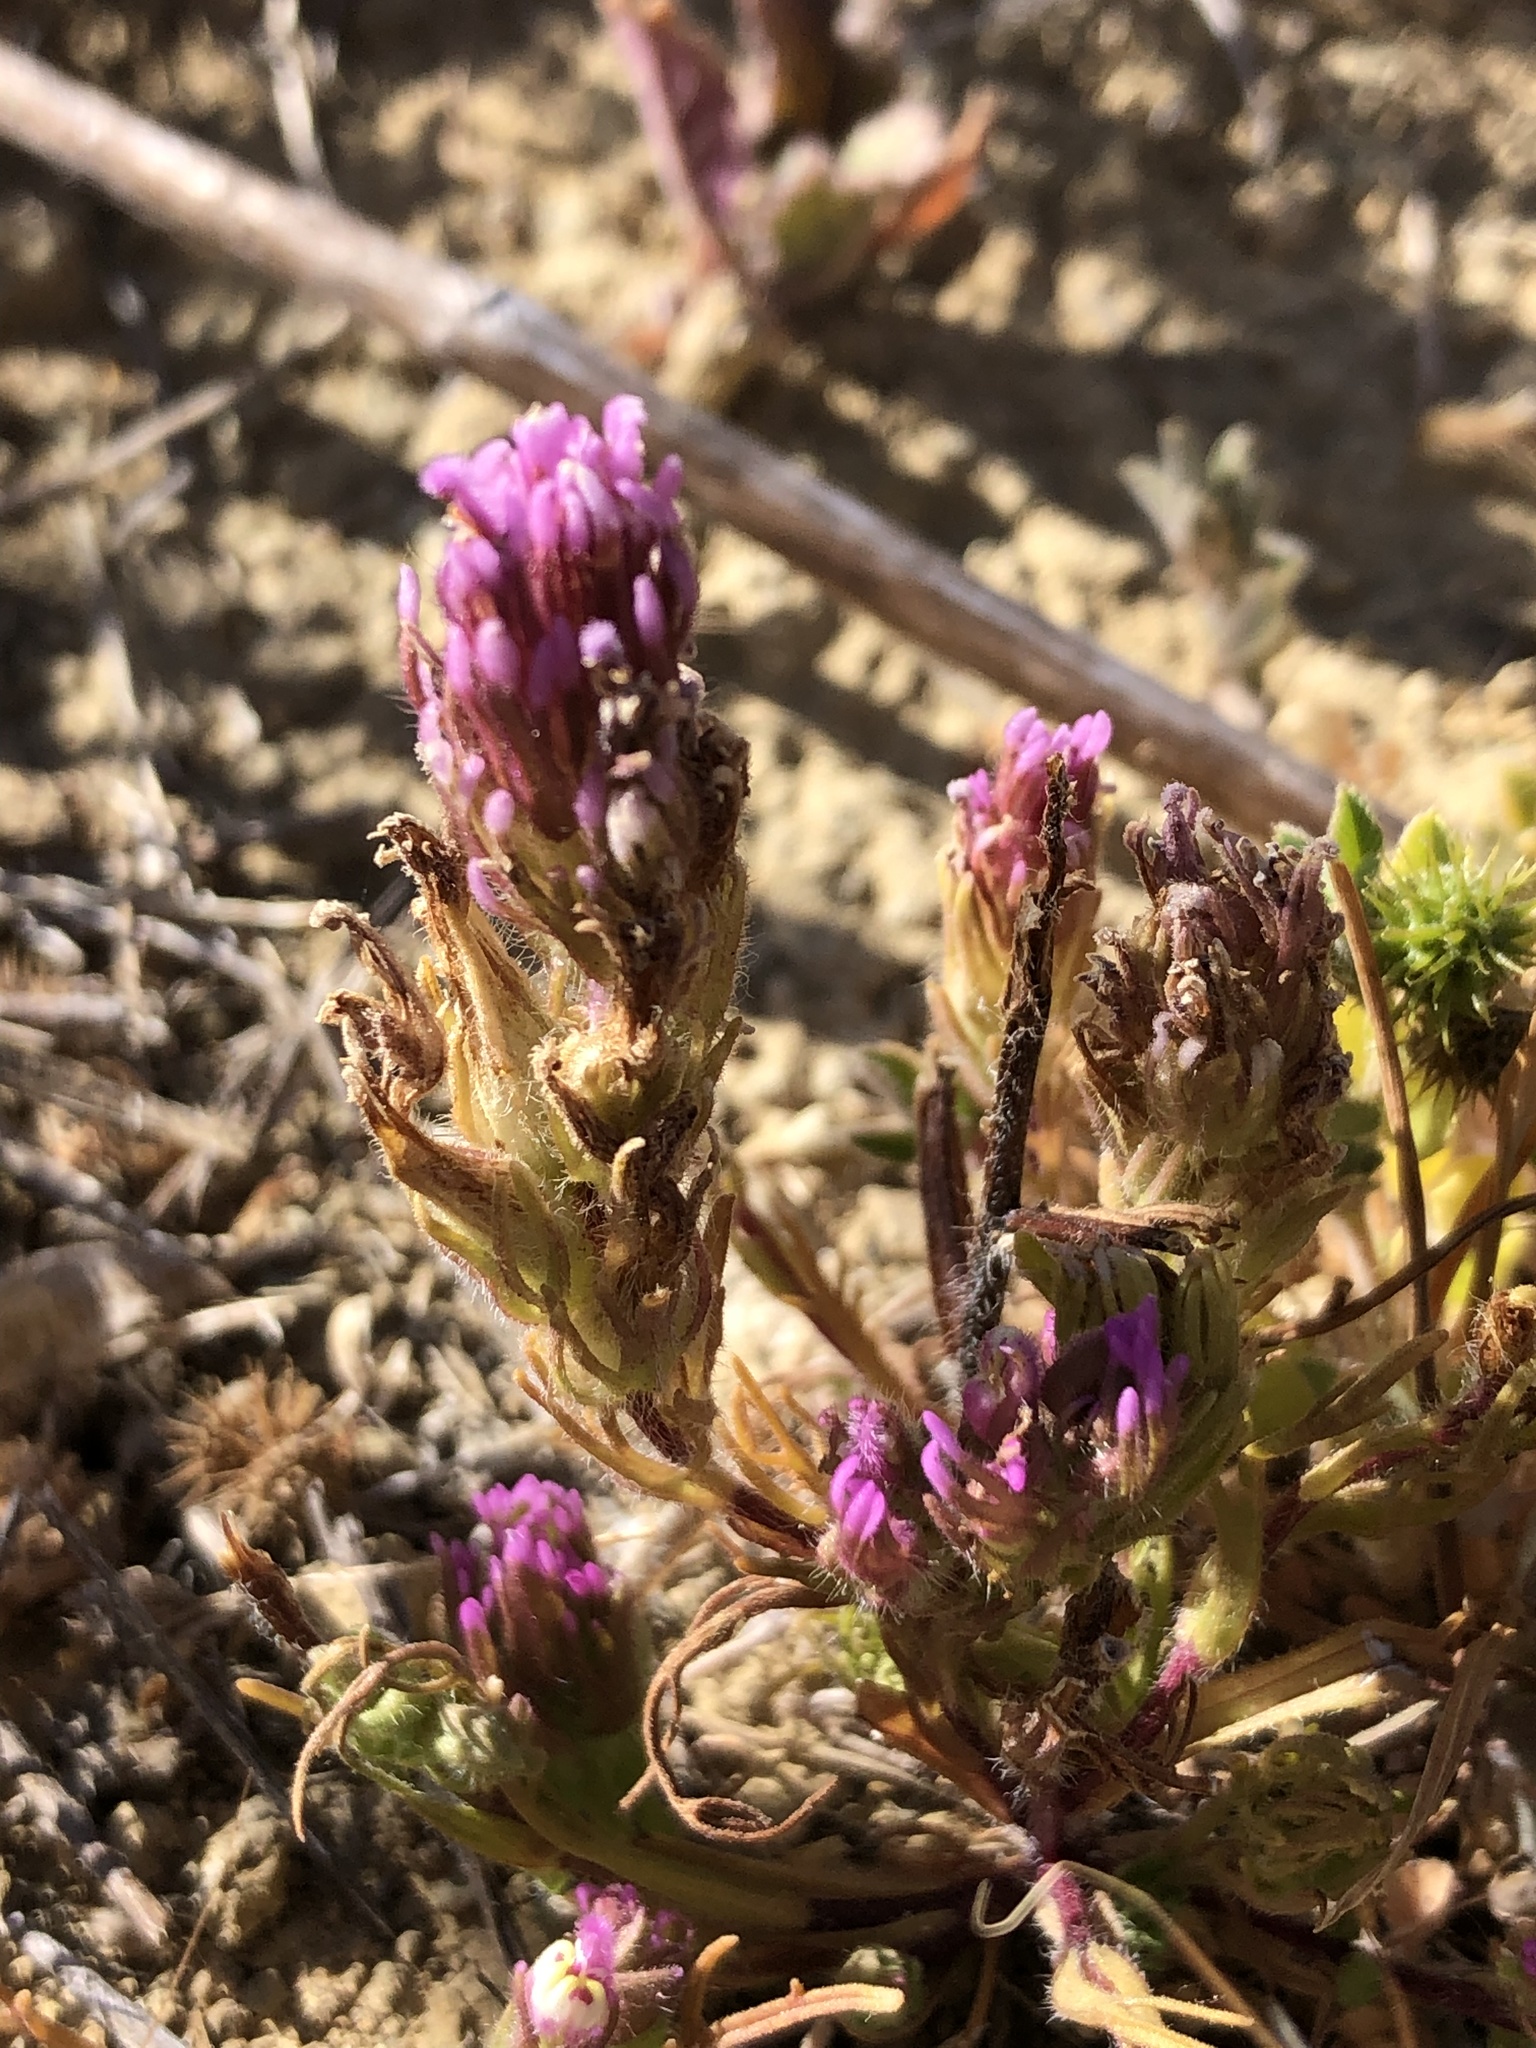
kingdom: Plantae
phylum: Tracheophyta
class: Magnoliopsida
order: Lamiales
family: Orobanchaceae
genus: Castilleja
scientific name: Castilleja exserta
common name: Purple owl-clover
